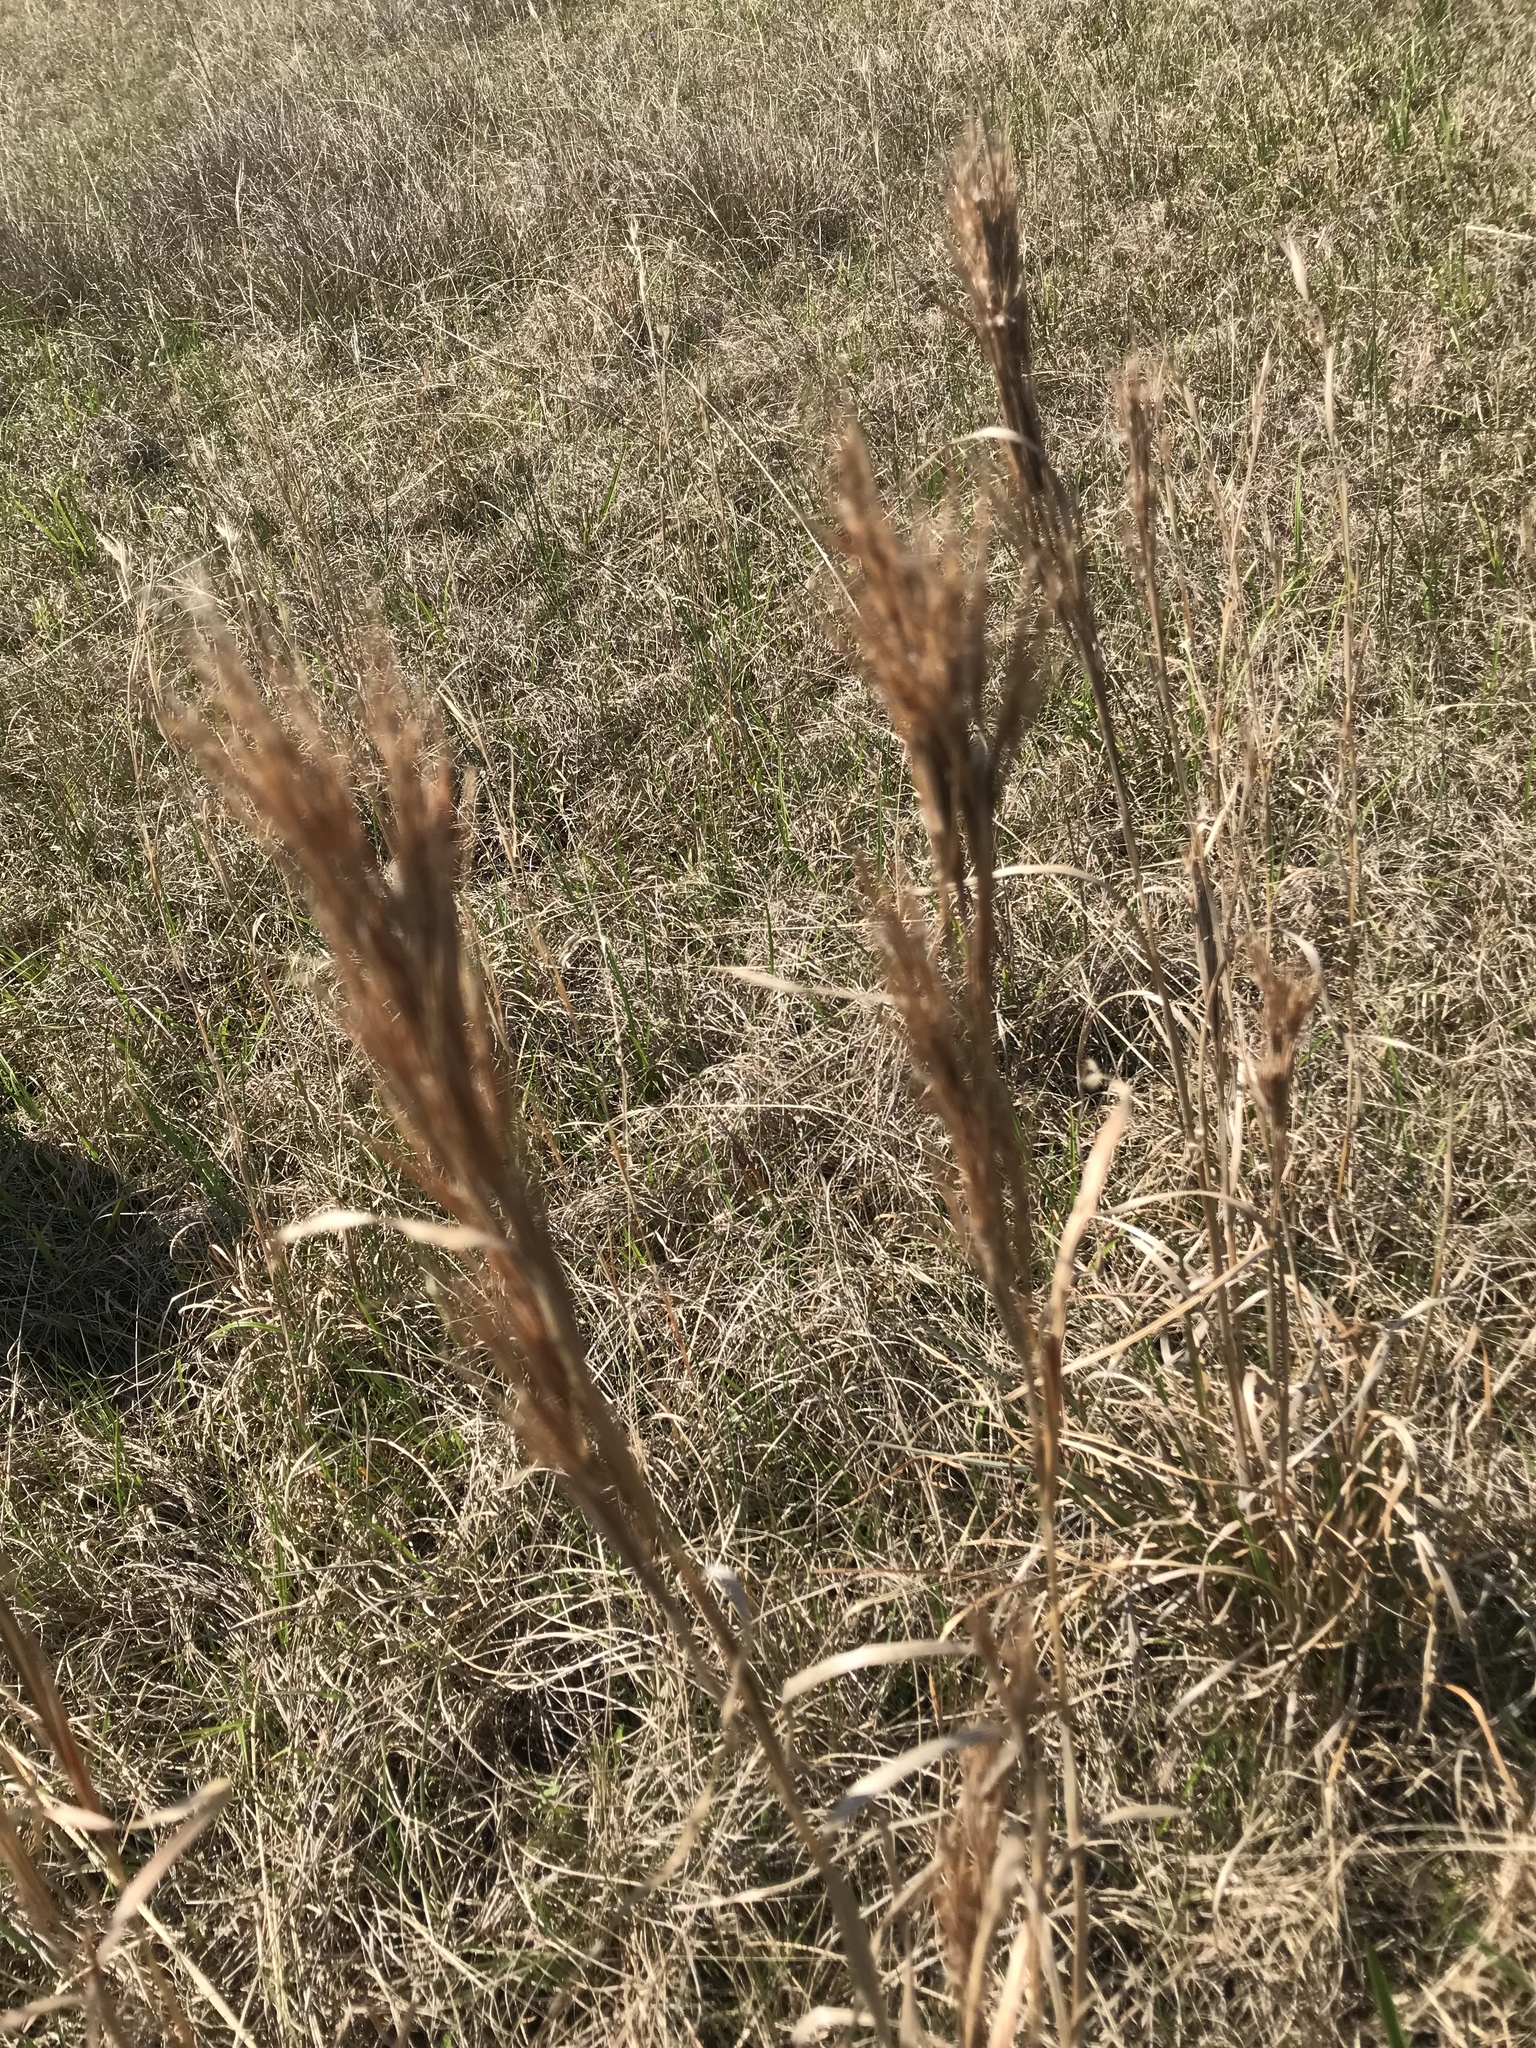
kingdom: Plantae
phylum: Tracheophyta
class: Liliopsida
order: Poales
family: Poaceae
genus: Andropogon
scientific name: Andropogon tenuispatheus
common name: Bushy bluestem
